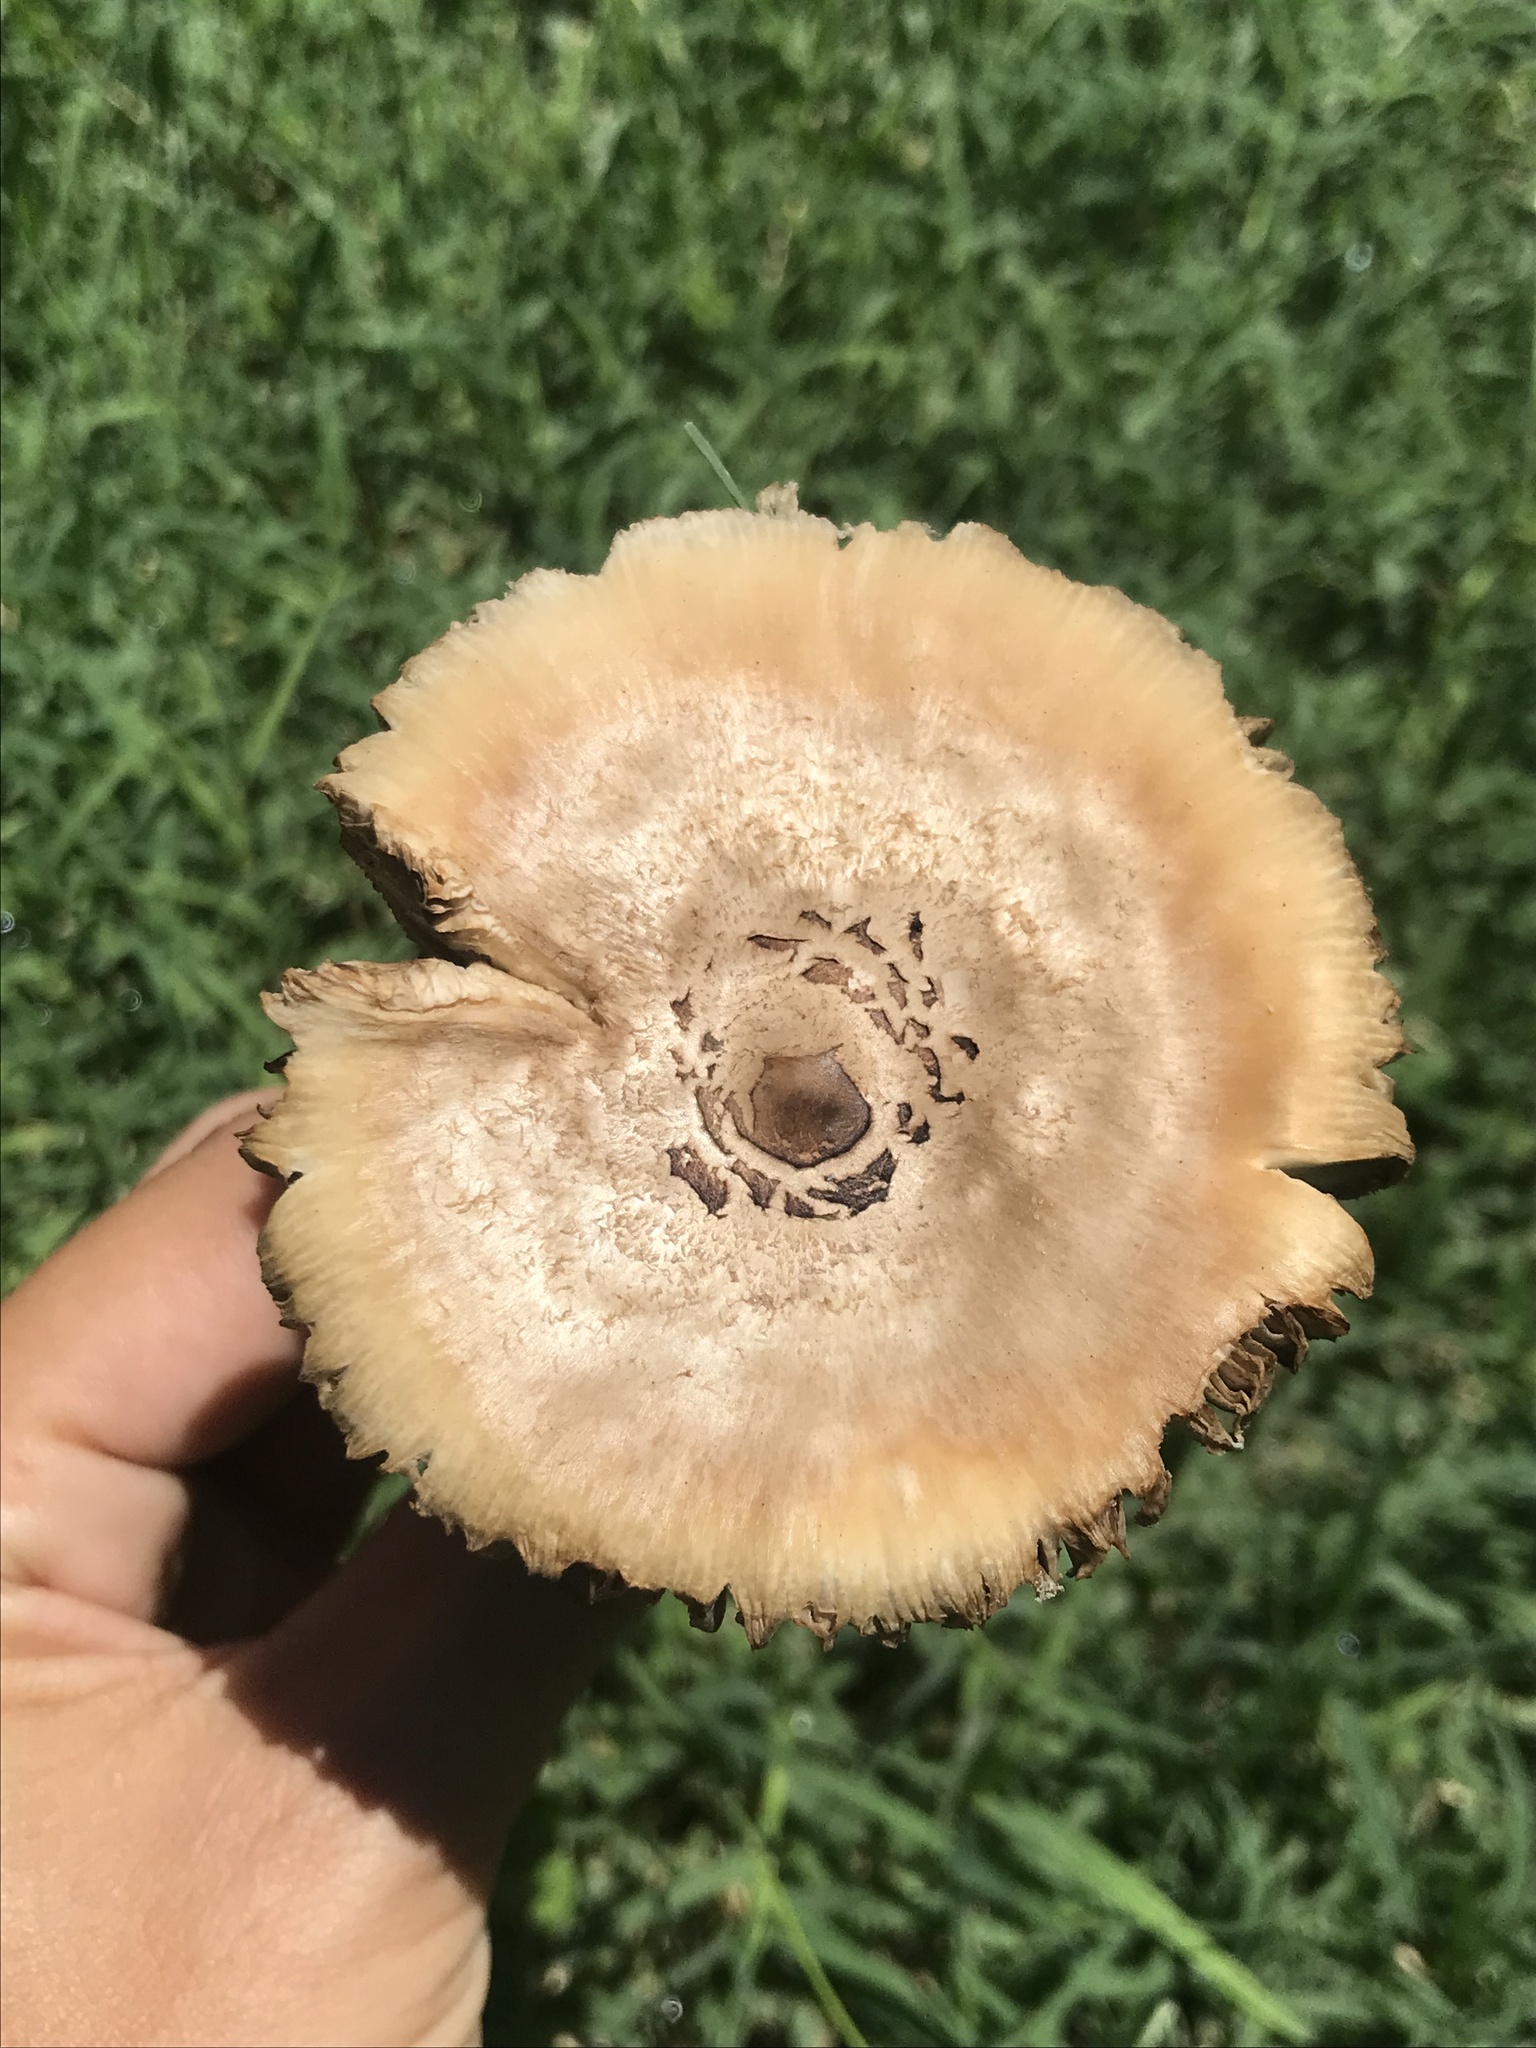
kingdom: Fungi
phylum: Basidiomycota
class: Agaricomycetes
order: Agaricales
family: Agaricaceae
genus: Chlorophyllum
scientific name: Chlorophyllum molybdites
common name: False parasol
